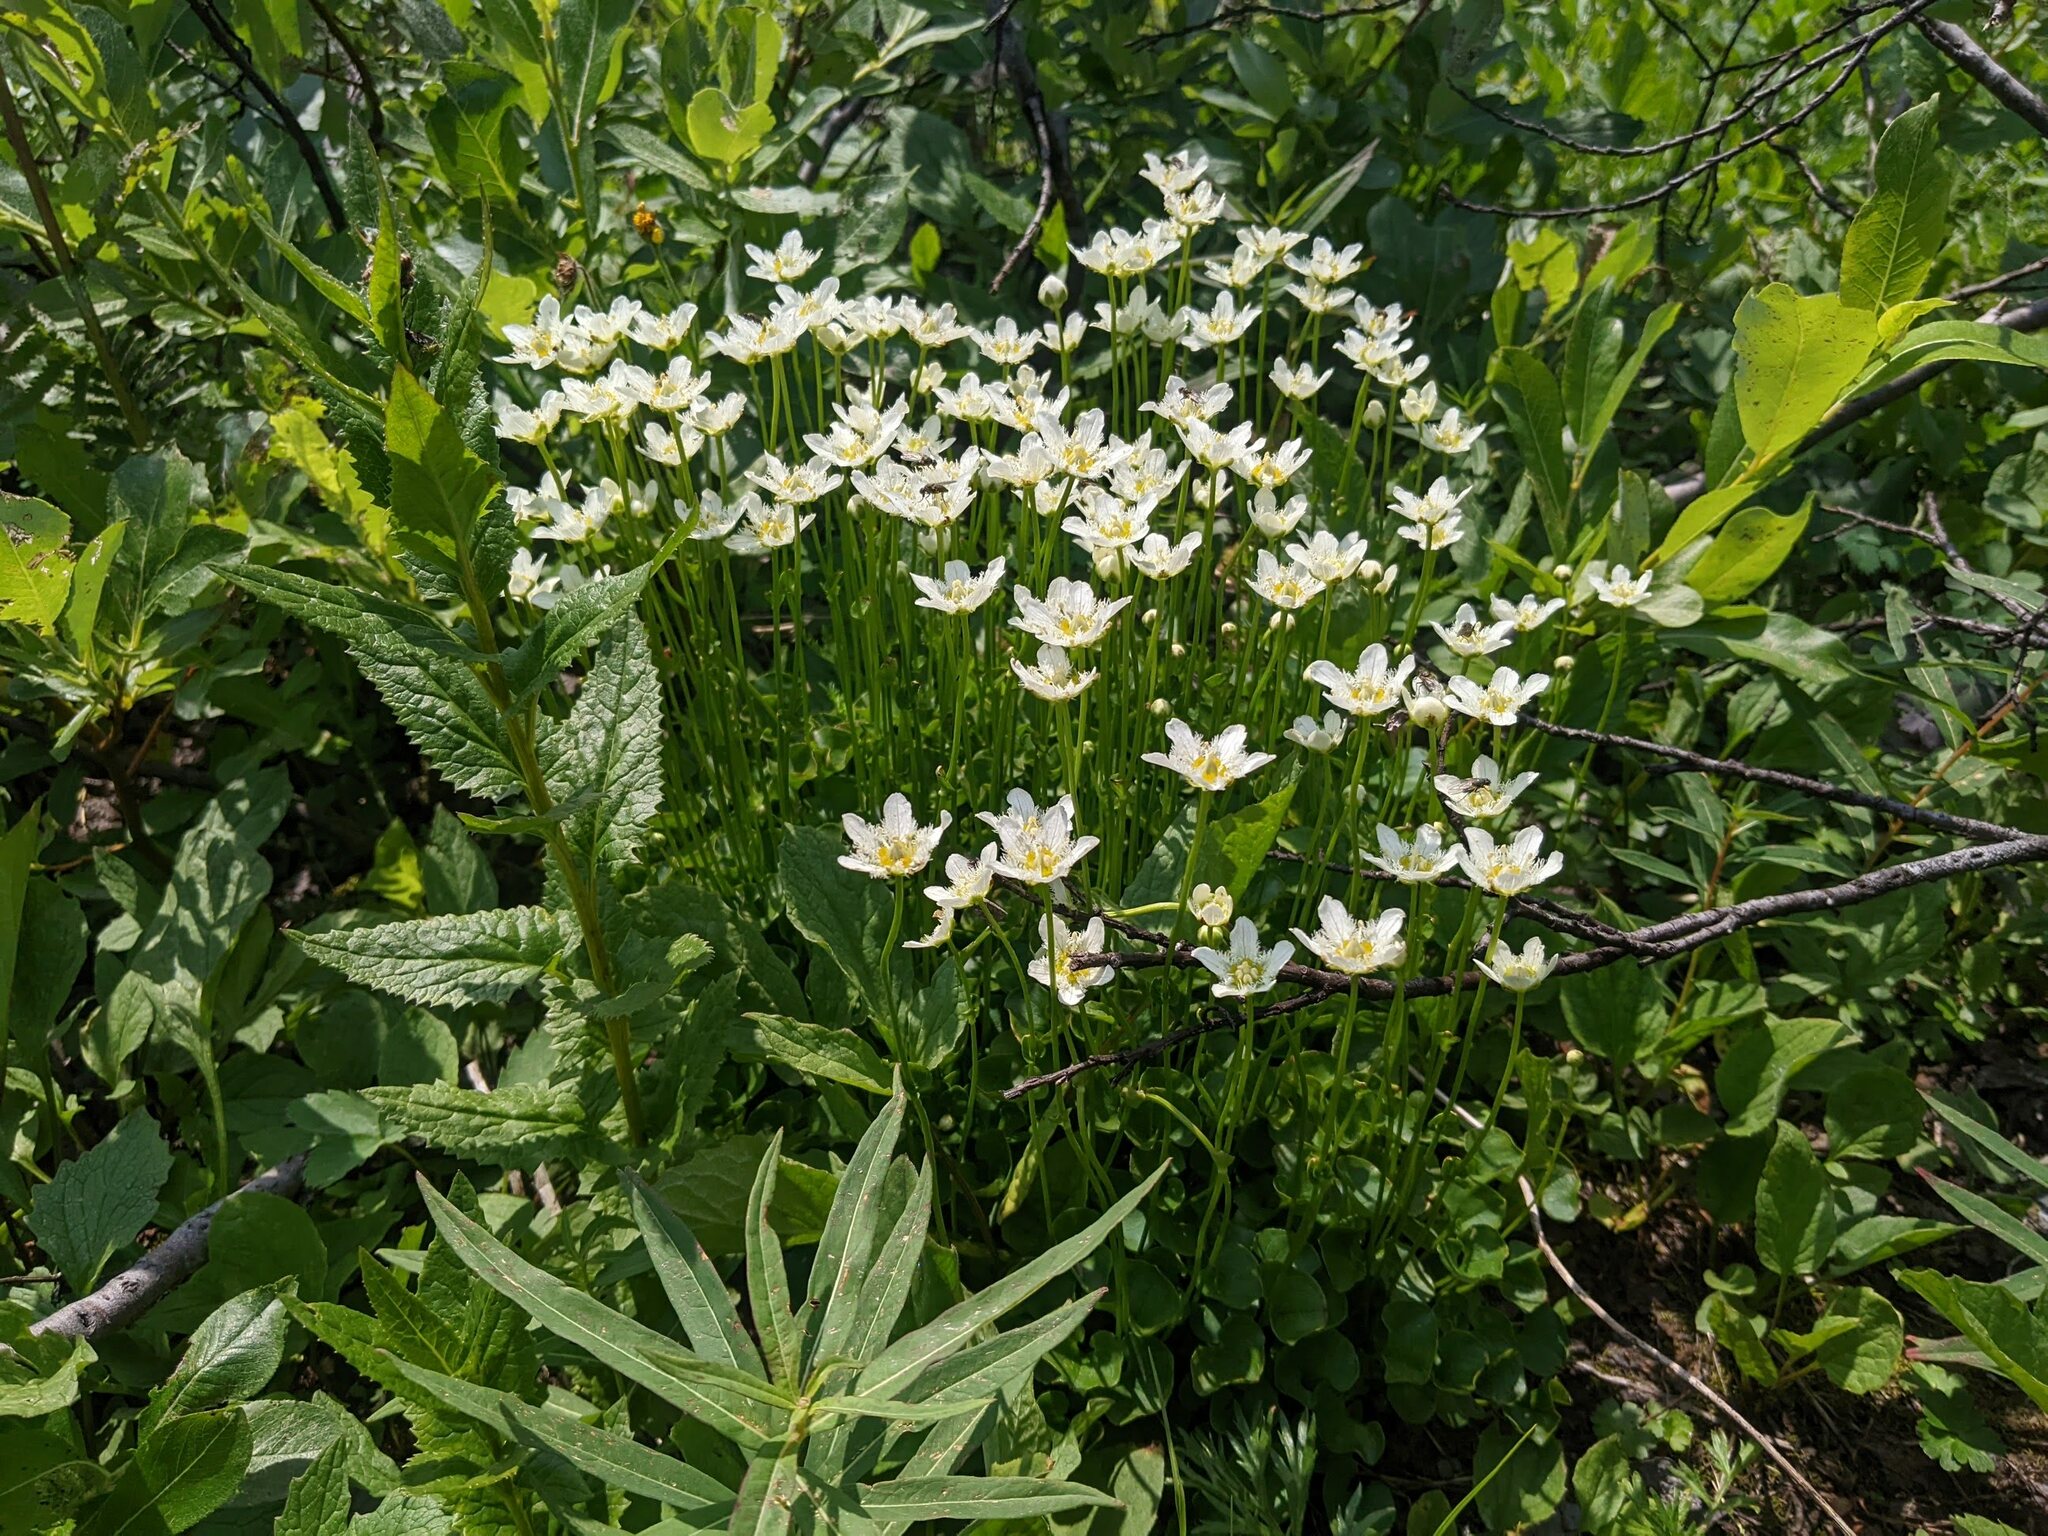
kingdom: Plantae
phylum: Tracheophyta
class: Magnoliopsida
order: Celastrales
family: Parnassiaceae
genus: Parnassia
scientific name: Parnassia fimbriata
